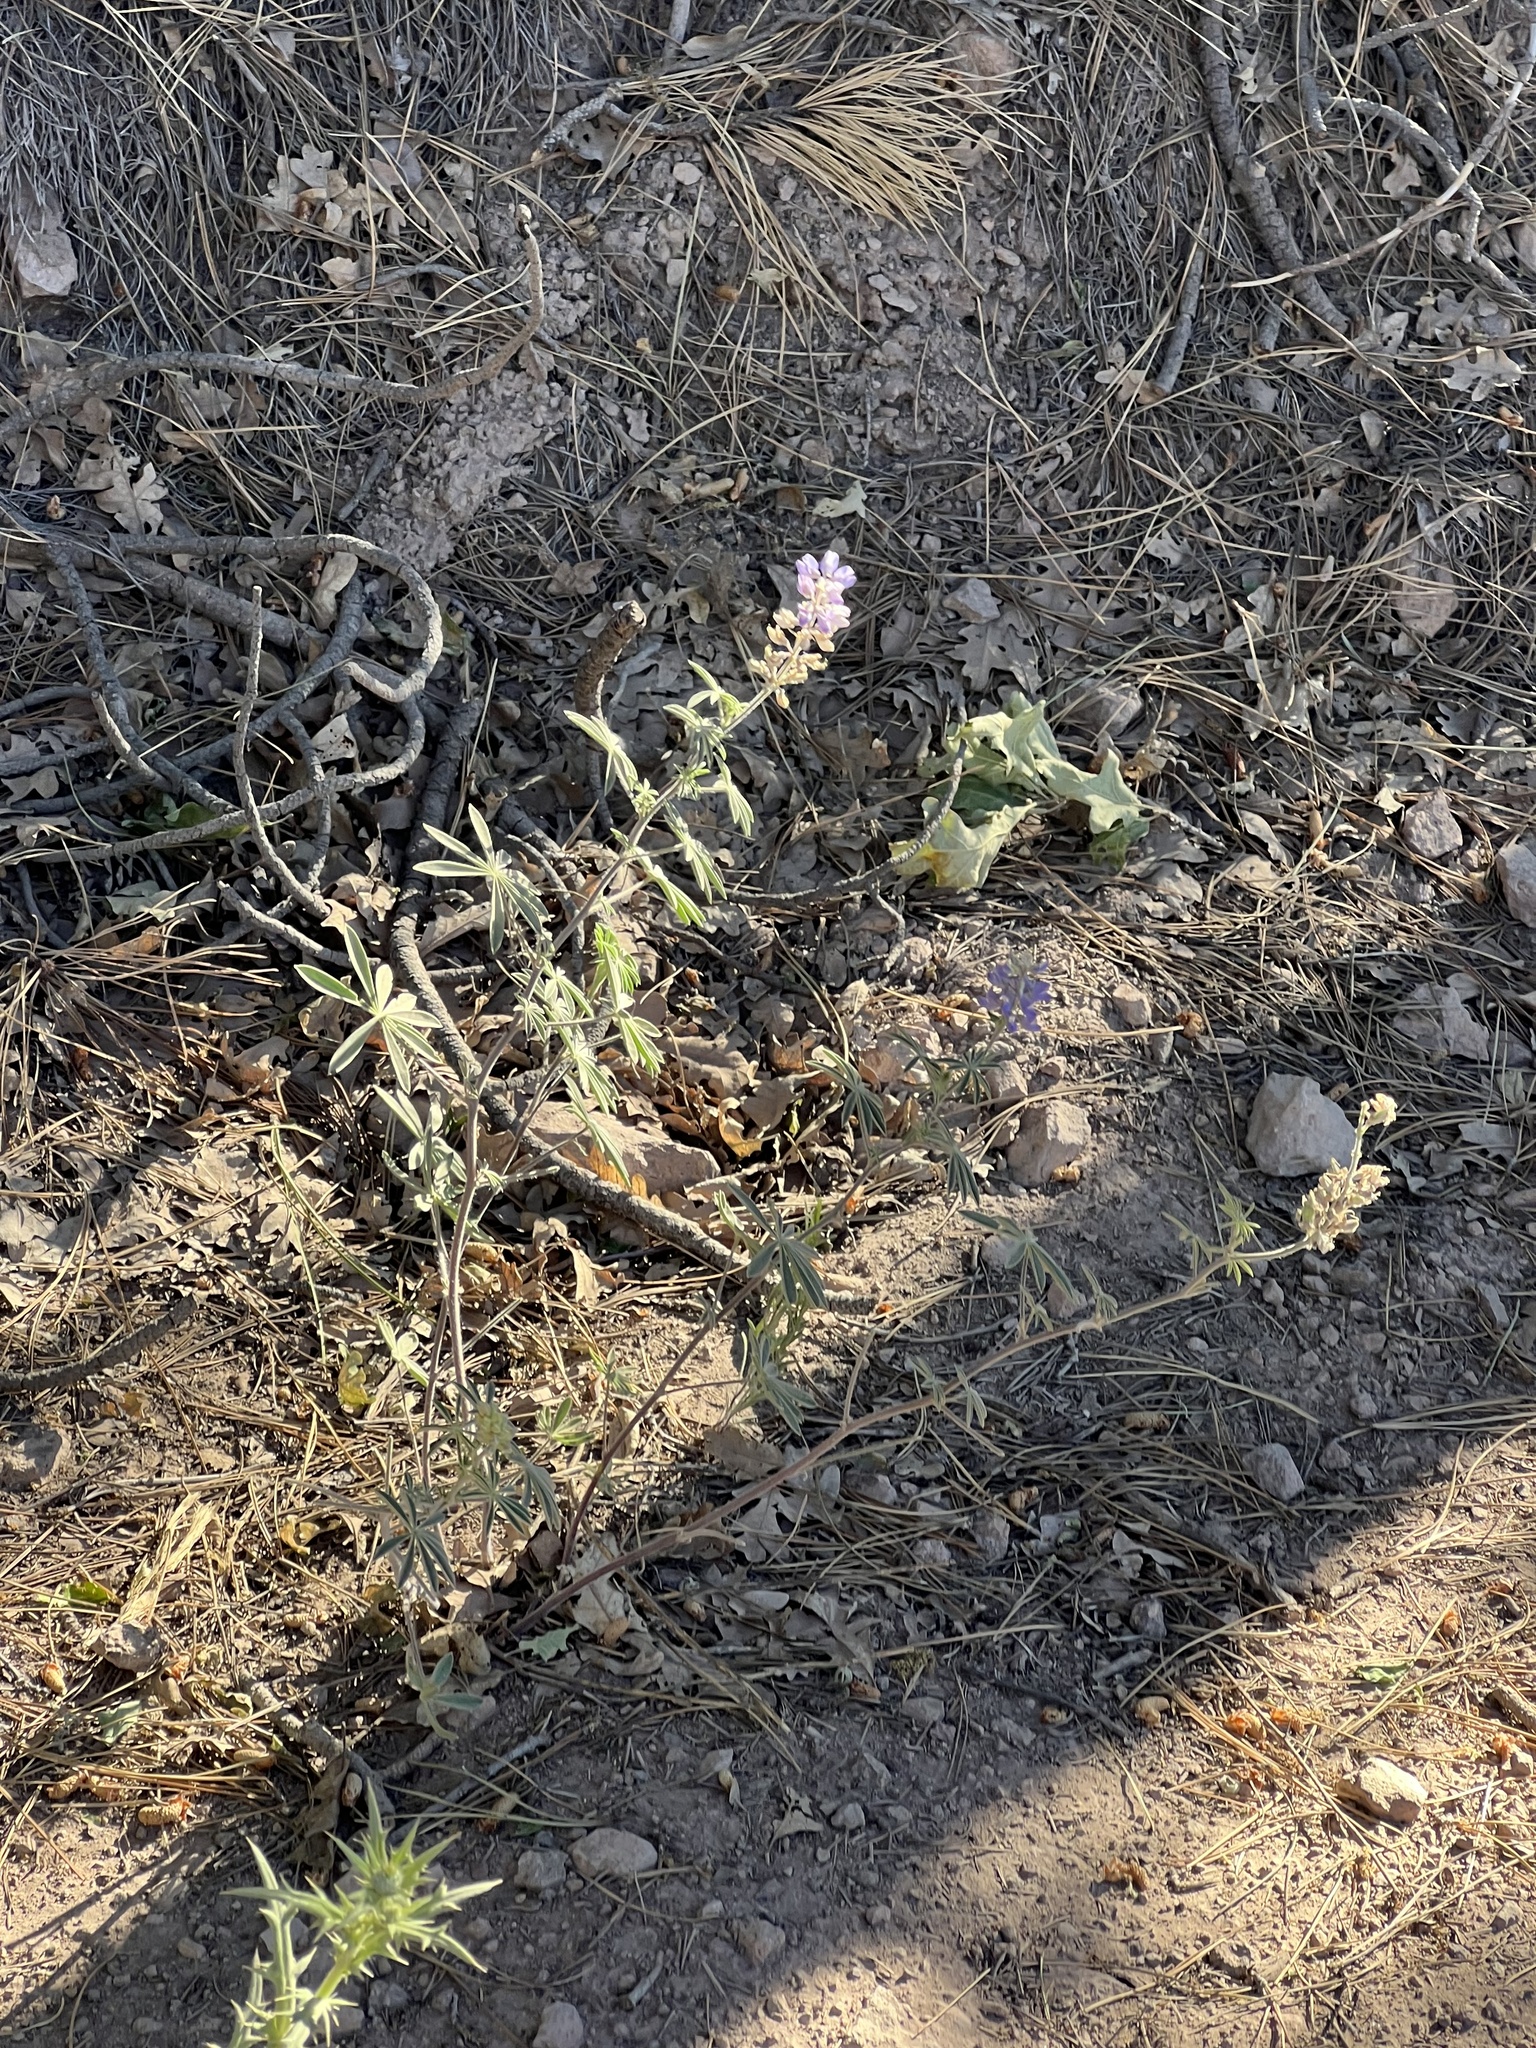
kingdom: Plantae
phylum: Tracheophyta
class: Magnoliopsida
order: Fabales
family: Fabaceae
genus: Lupinus
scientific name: Lupinus argenteus
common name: Silvery lupine
